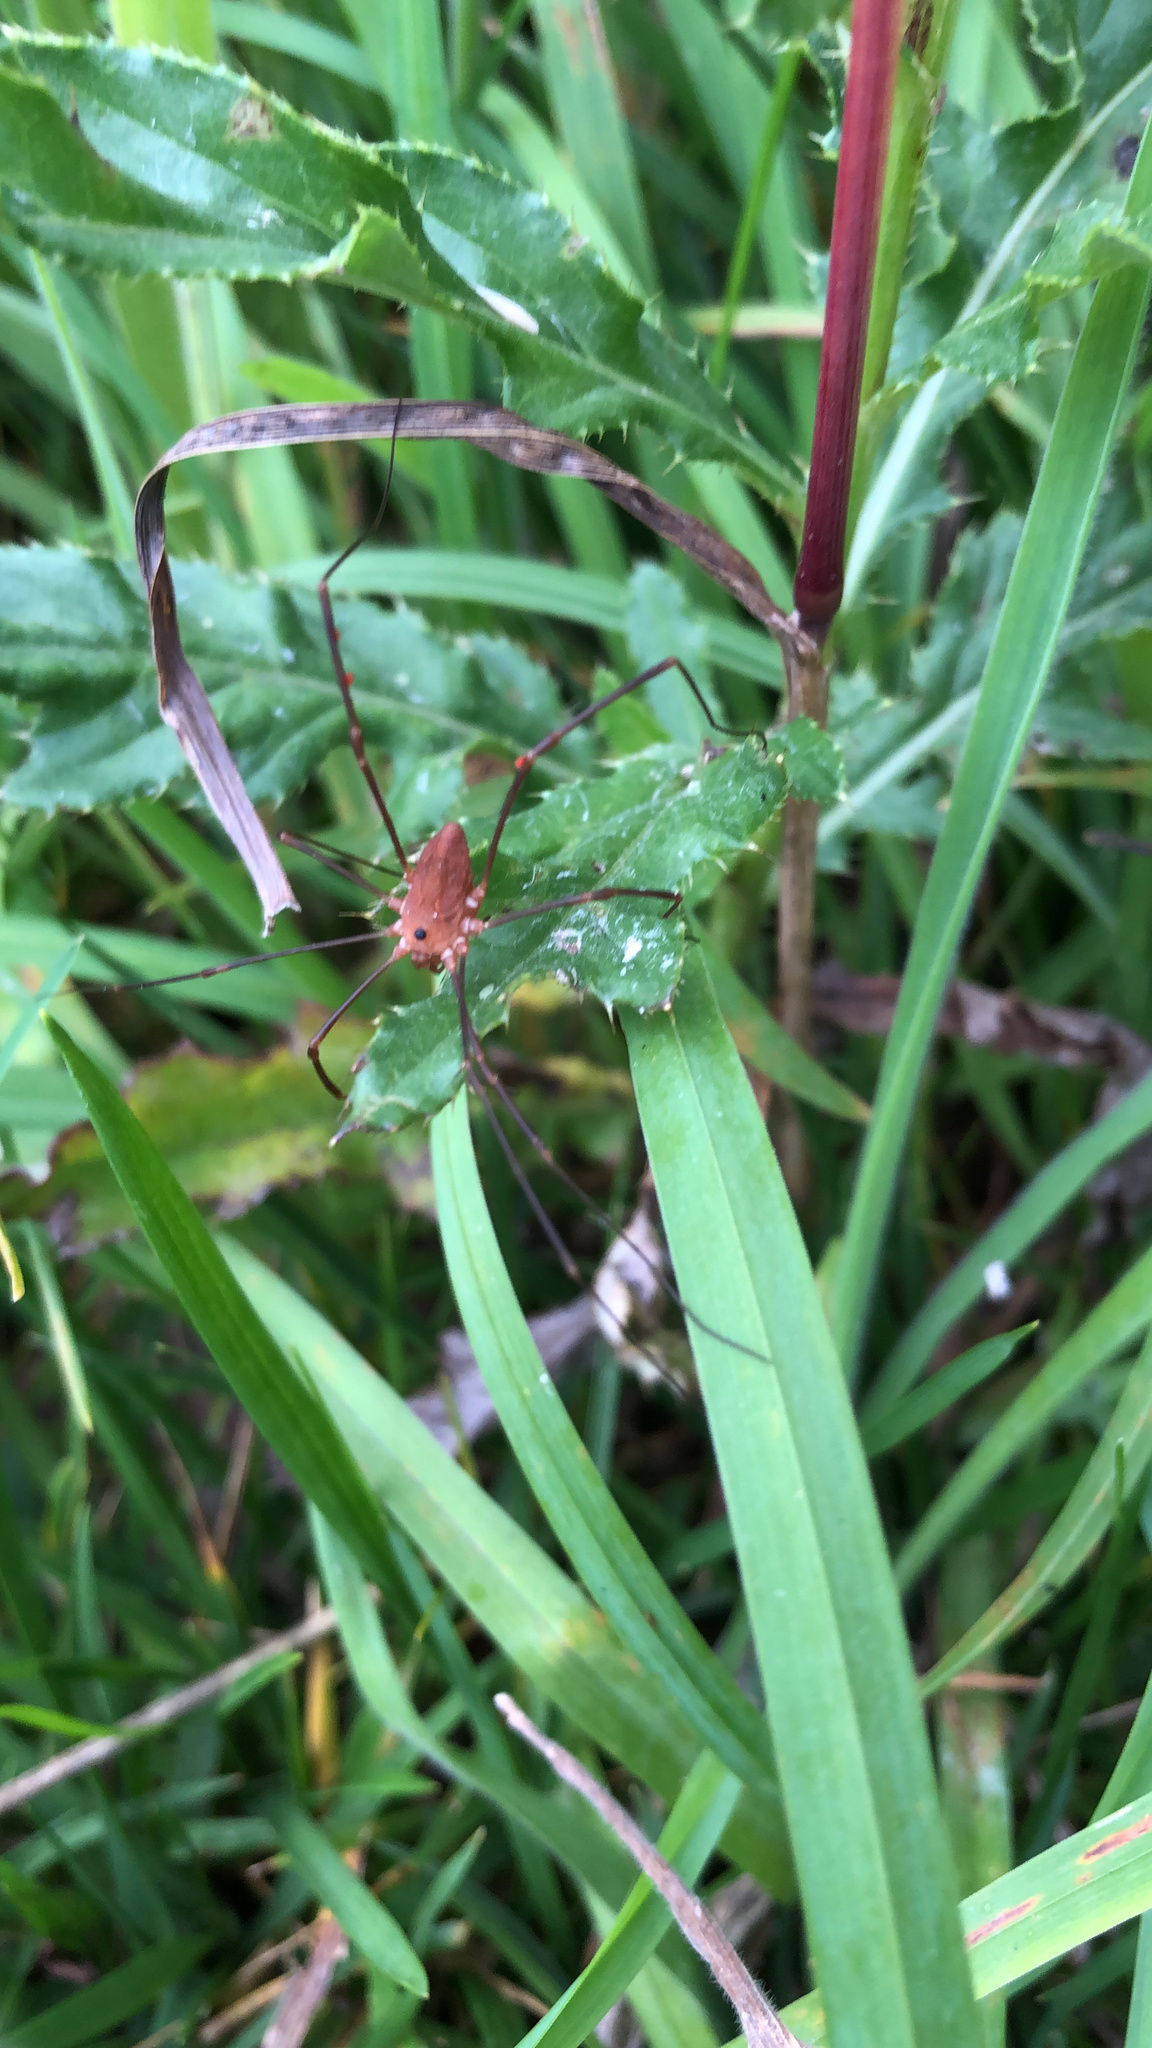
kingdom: Animalia
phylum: Arthropoda
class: Arachnida
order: Opiliones
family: Sclerosomatidae
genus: Leiobunum
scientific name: Leiobunum ventricosum
